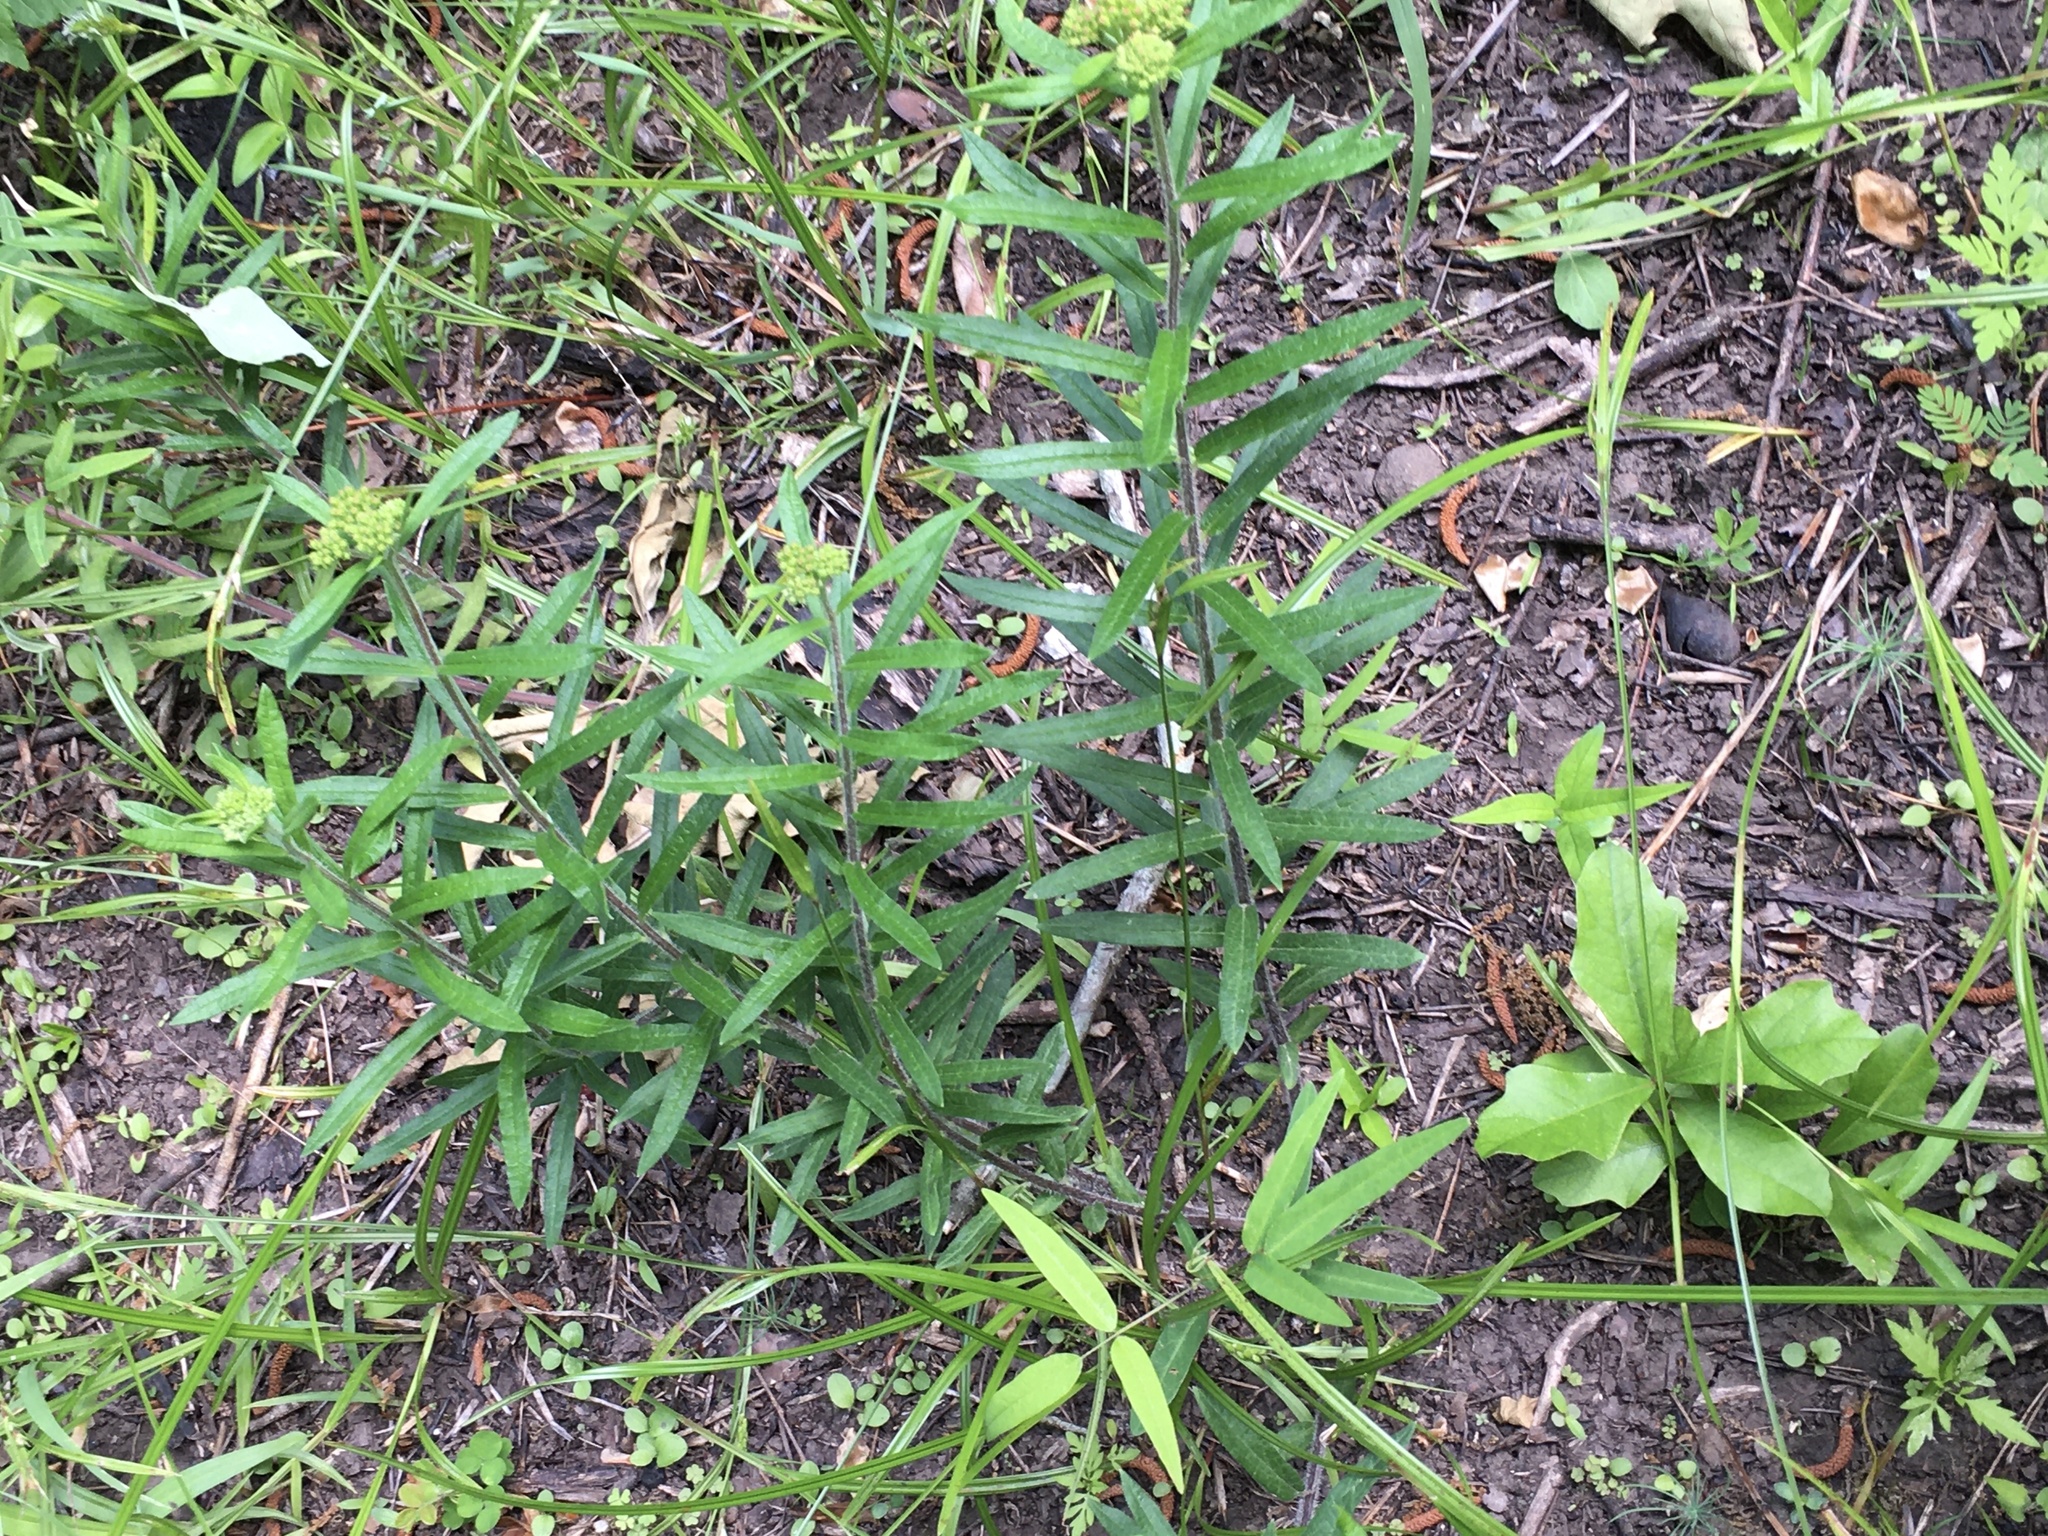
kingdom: Plantae
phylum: Tracheophyta
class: Magnoliopsida
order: Gentianales
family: Apocynaceae
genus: Asclepias
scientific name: Asclepias tuberosa
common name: Butterfly milkweed
